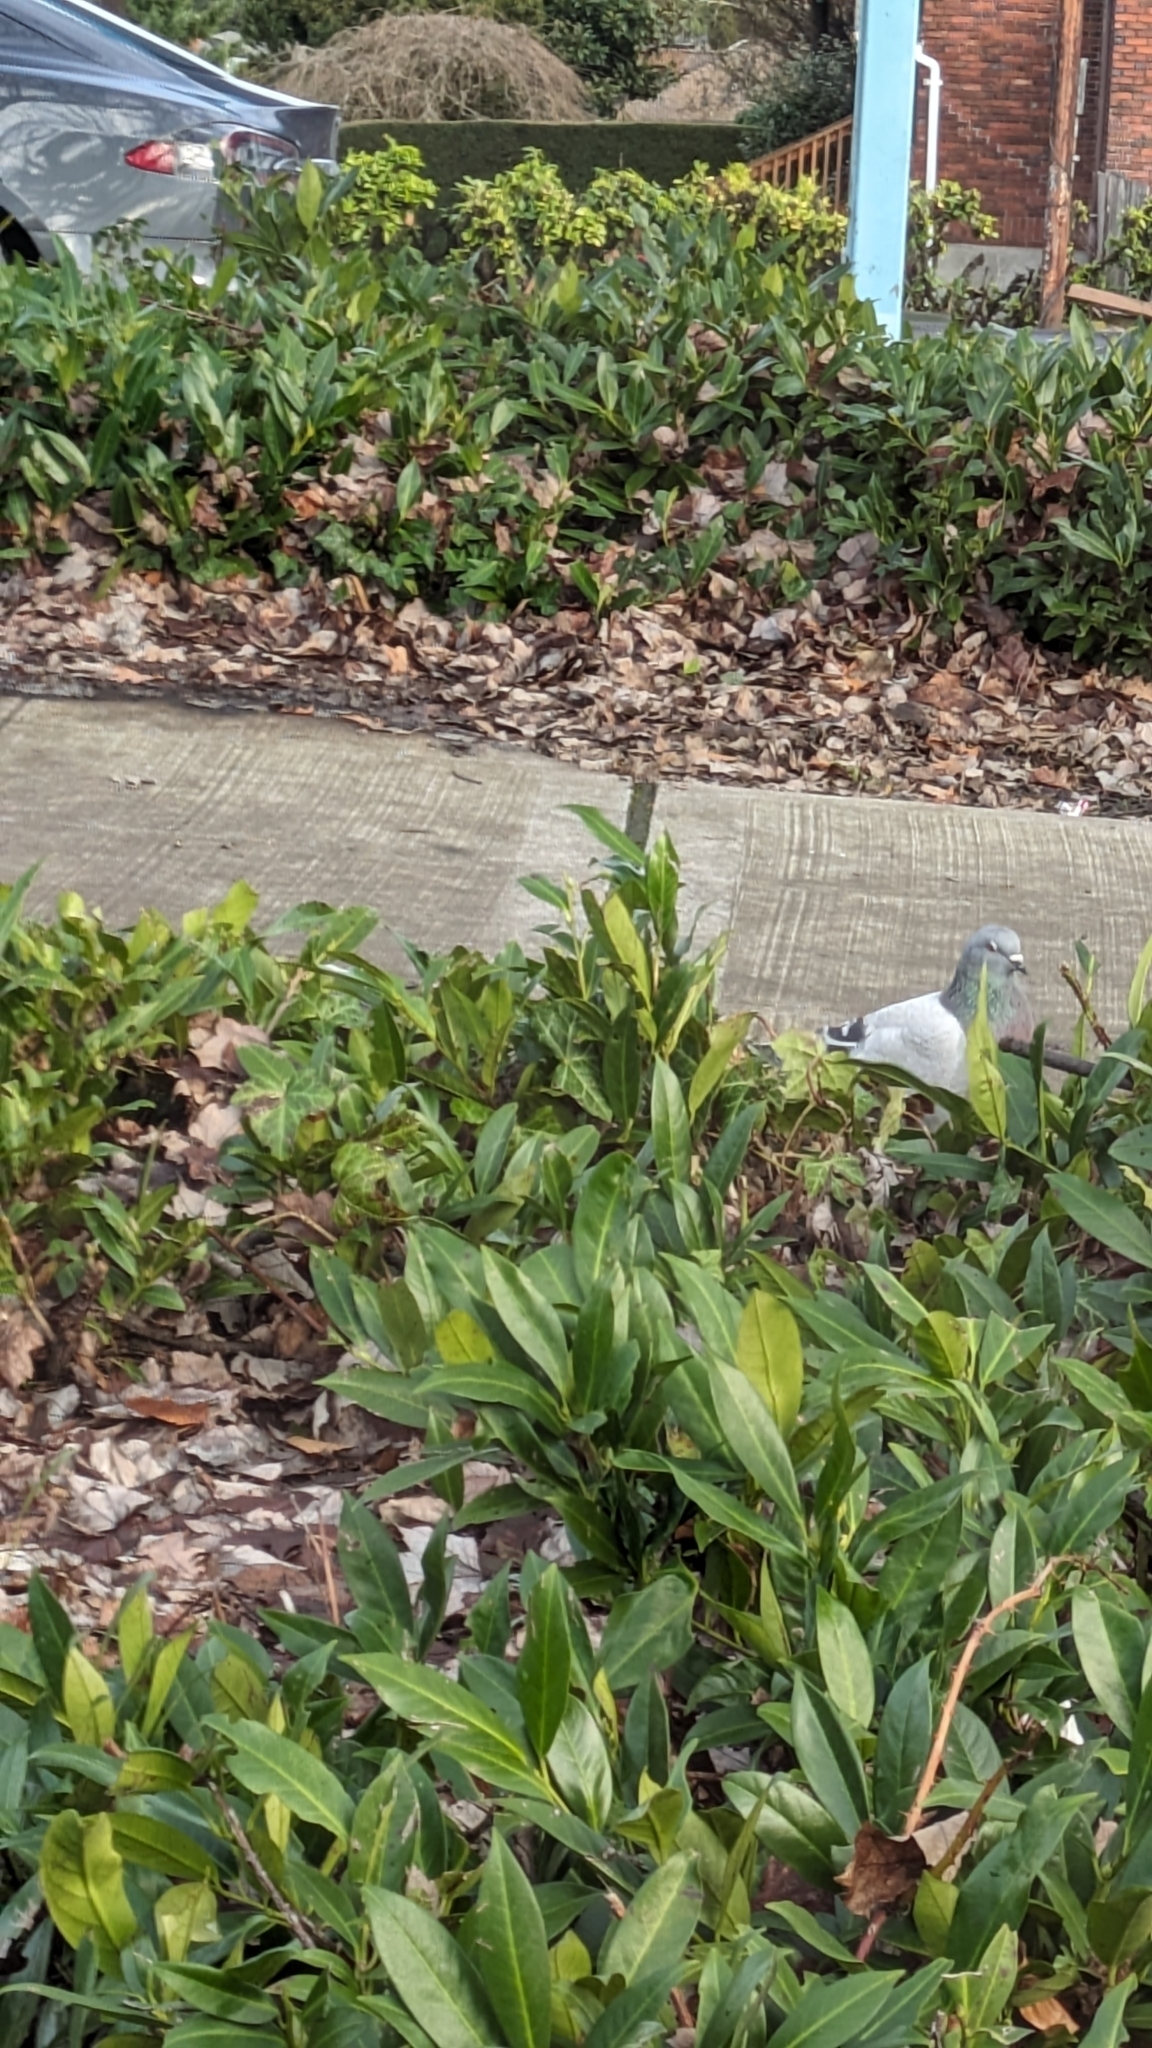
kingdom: Animalia
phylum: Chordata
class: Aves
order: Columbiformes
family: Columbidae
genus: Columba
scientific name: Columba livia
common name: Rock pigeon
